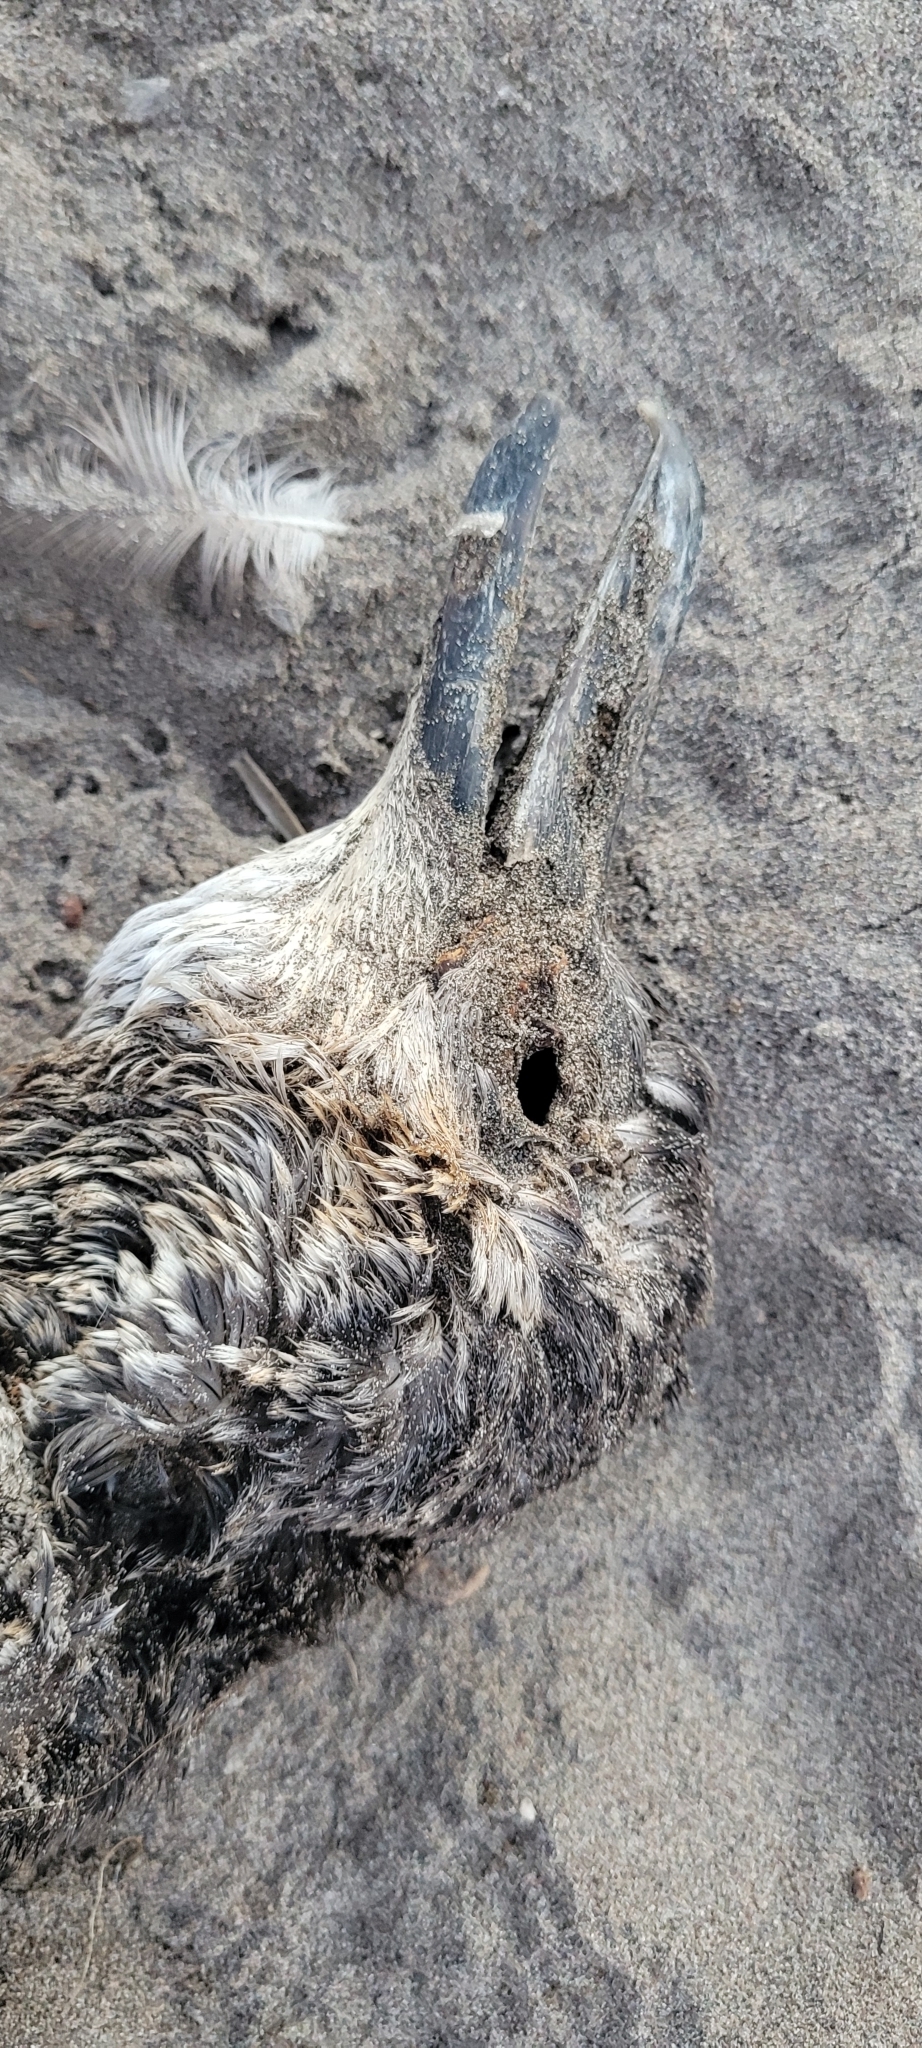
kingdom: Animalia
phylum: Chordata
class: Aves
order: Sphenisciformes
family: Spheniscidae
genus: Spheniscus
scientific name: Spheniscus humboldti
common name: Humboldt penguin
